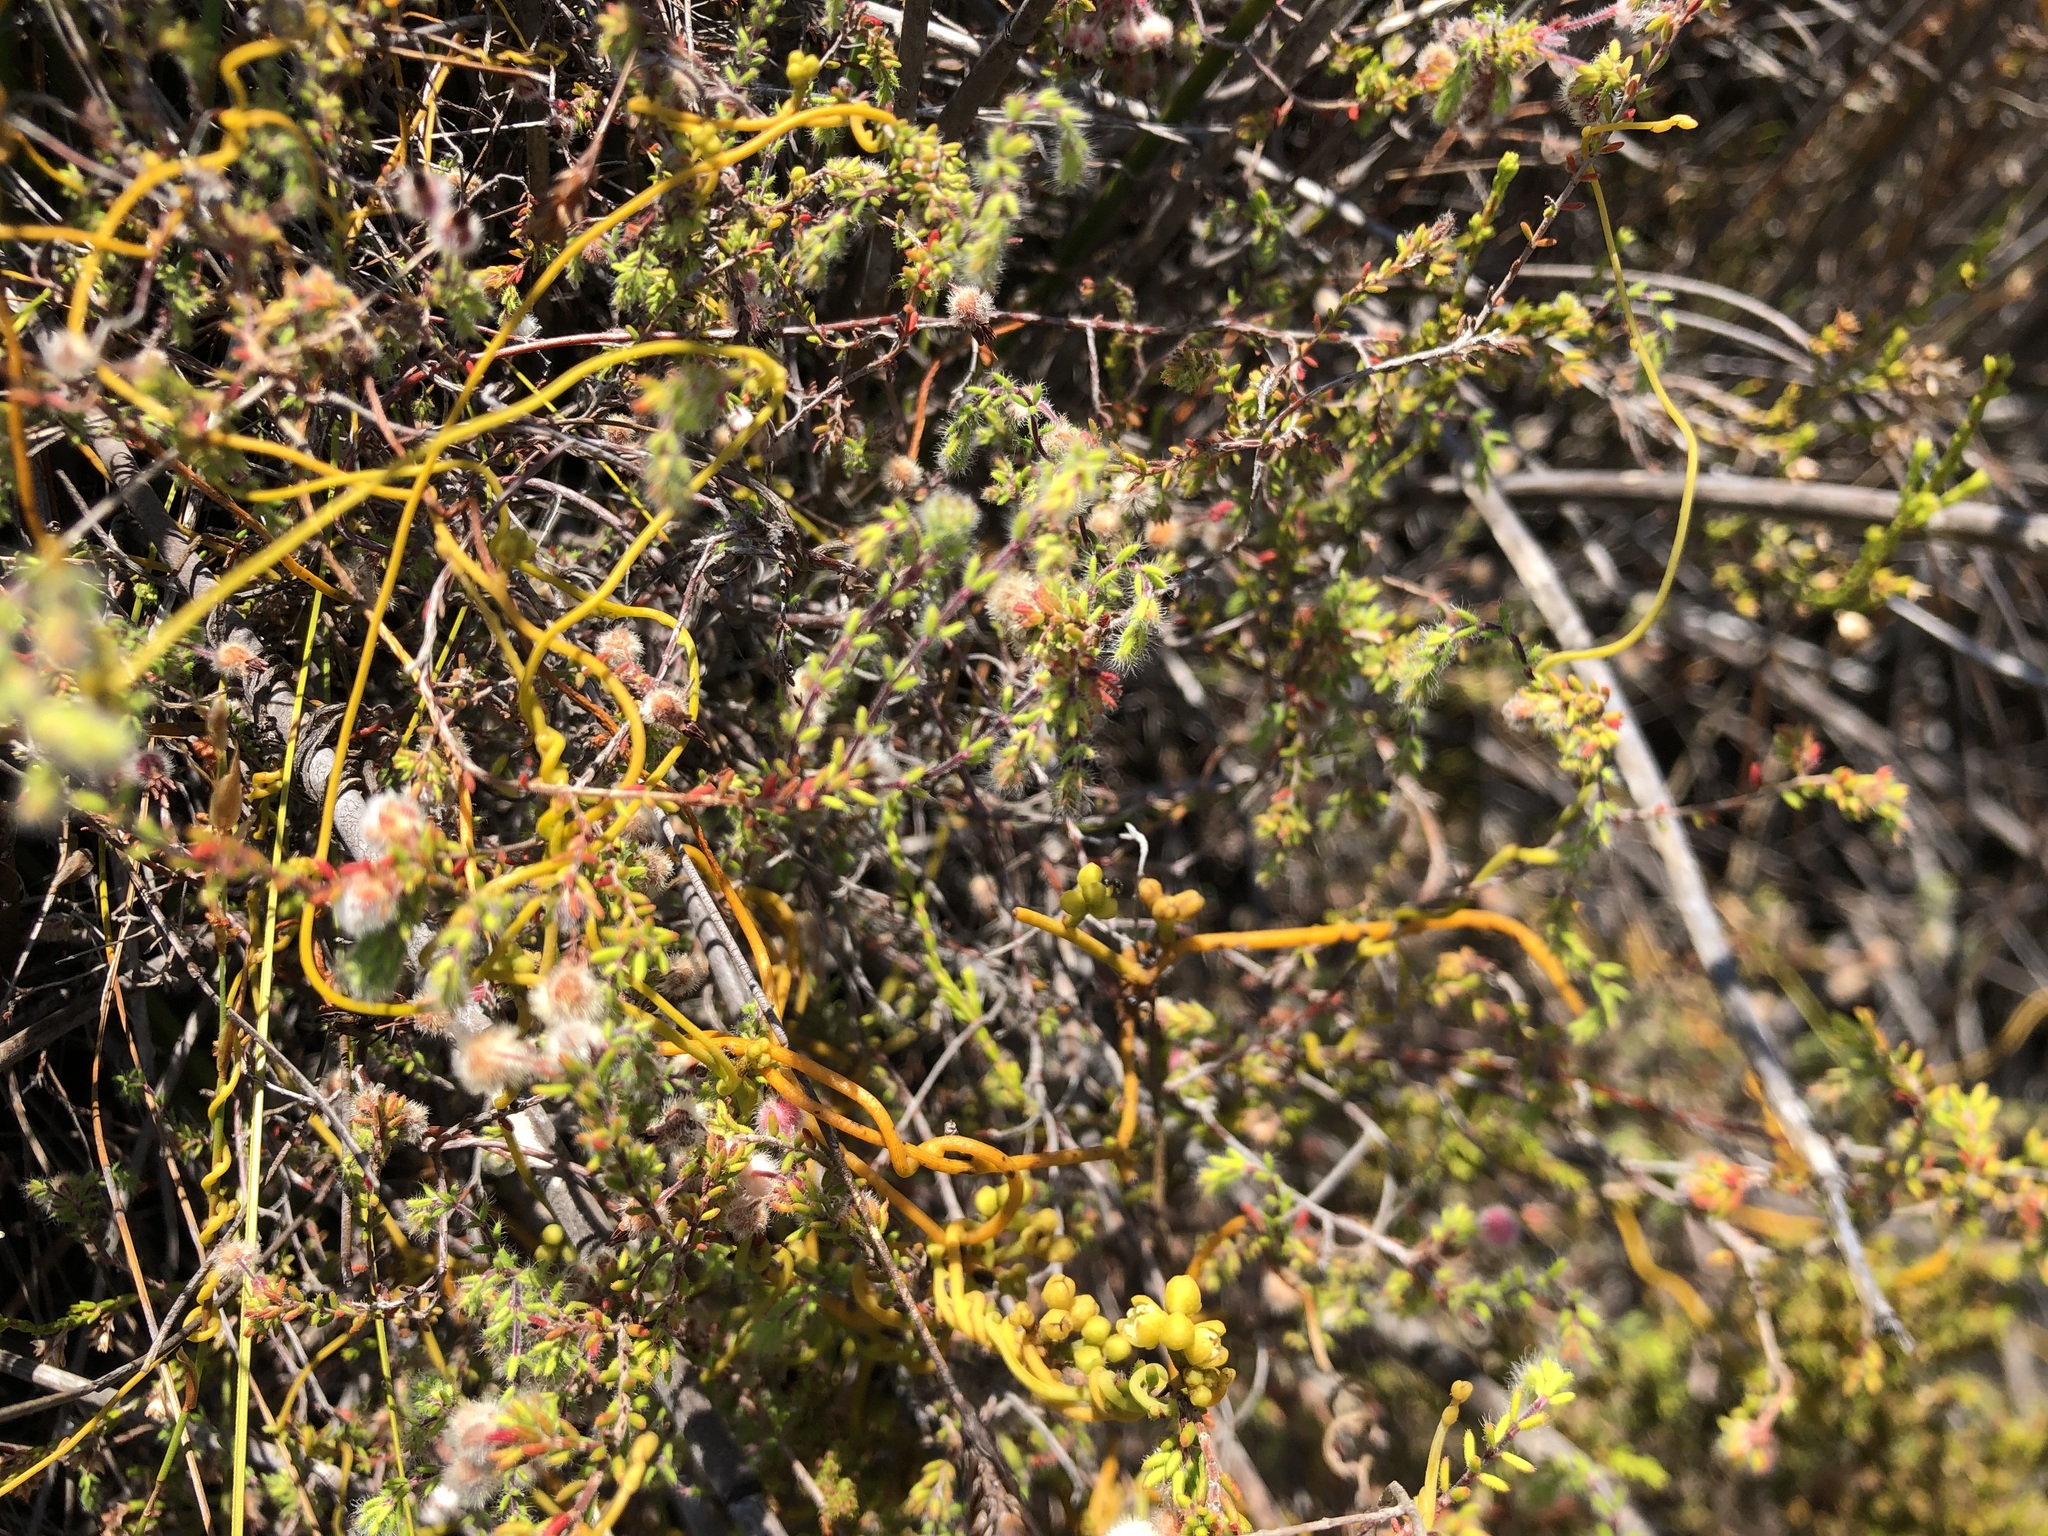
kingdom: Plantae
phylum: Tracheophyta
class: Magnoliopsida
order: Laurales
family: Lauraceae
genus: Cassytha
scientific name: Cassytha ciliolata
